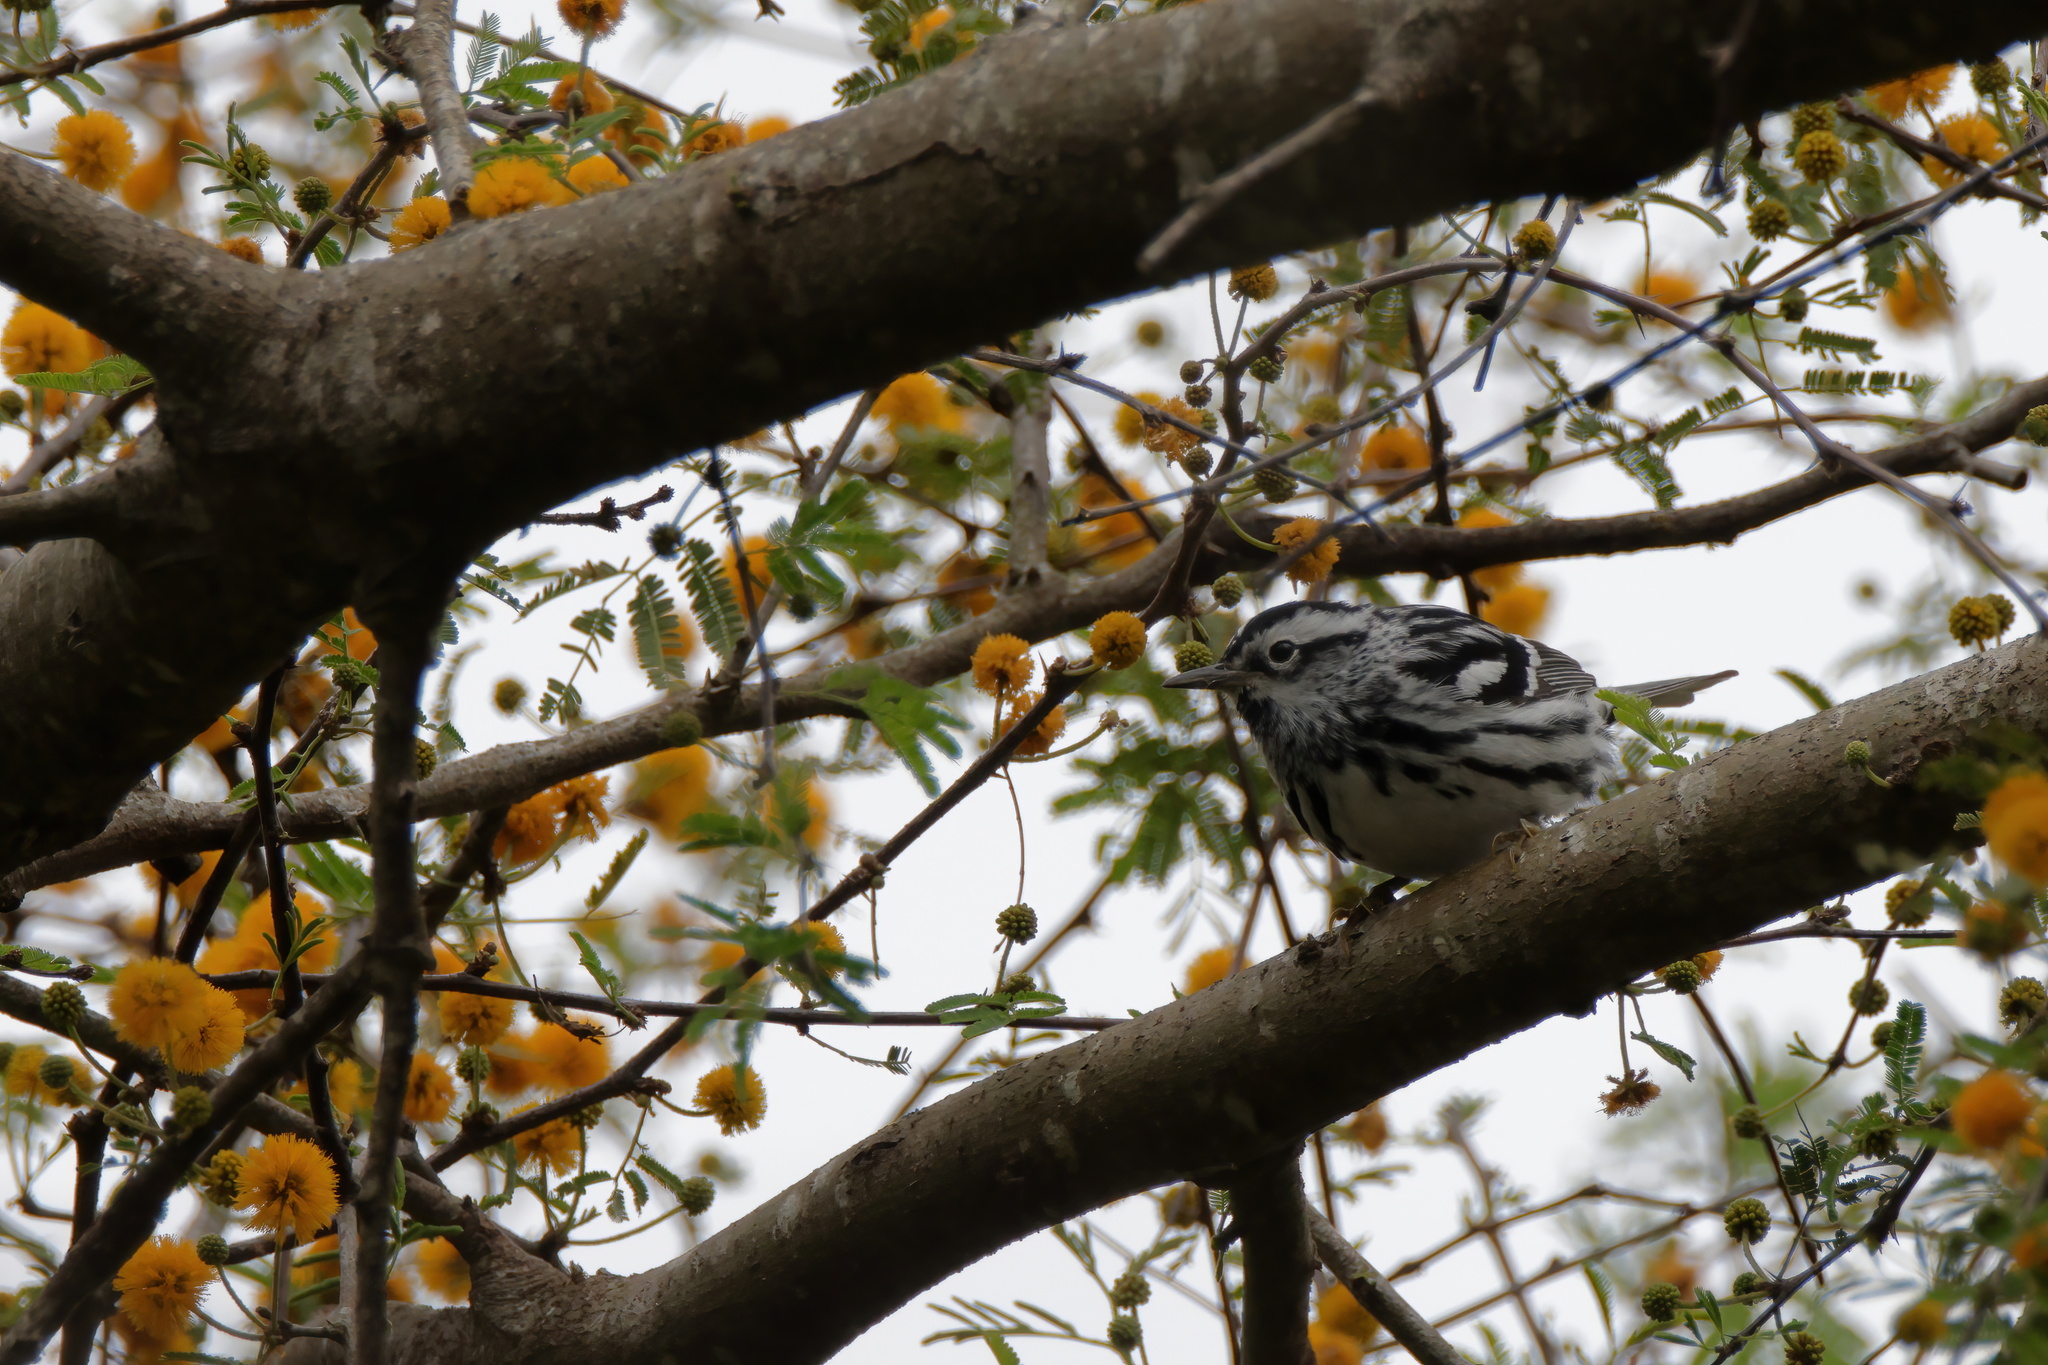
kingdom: Animalia
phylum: Chordata
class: Aves
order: Passeriformes
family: Parulidae
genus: Mniotilta
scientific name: Mniotilta varia
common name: Black-and-white warbler
